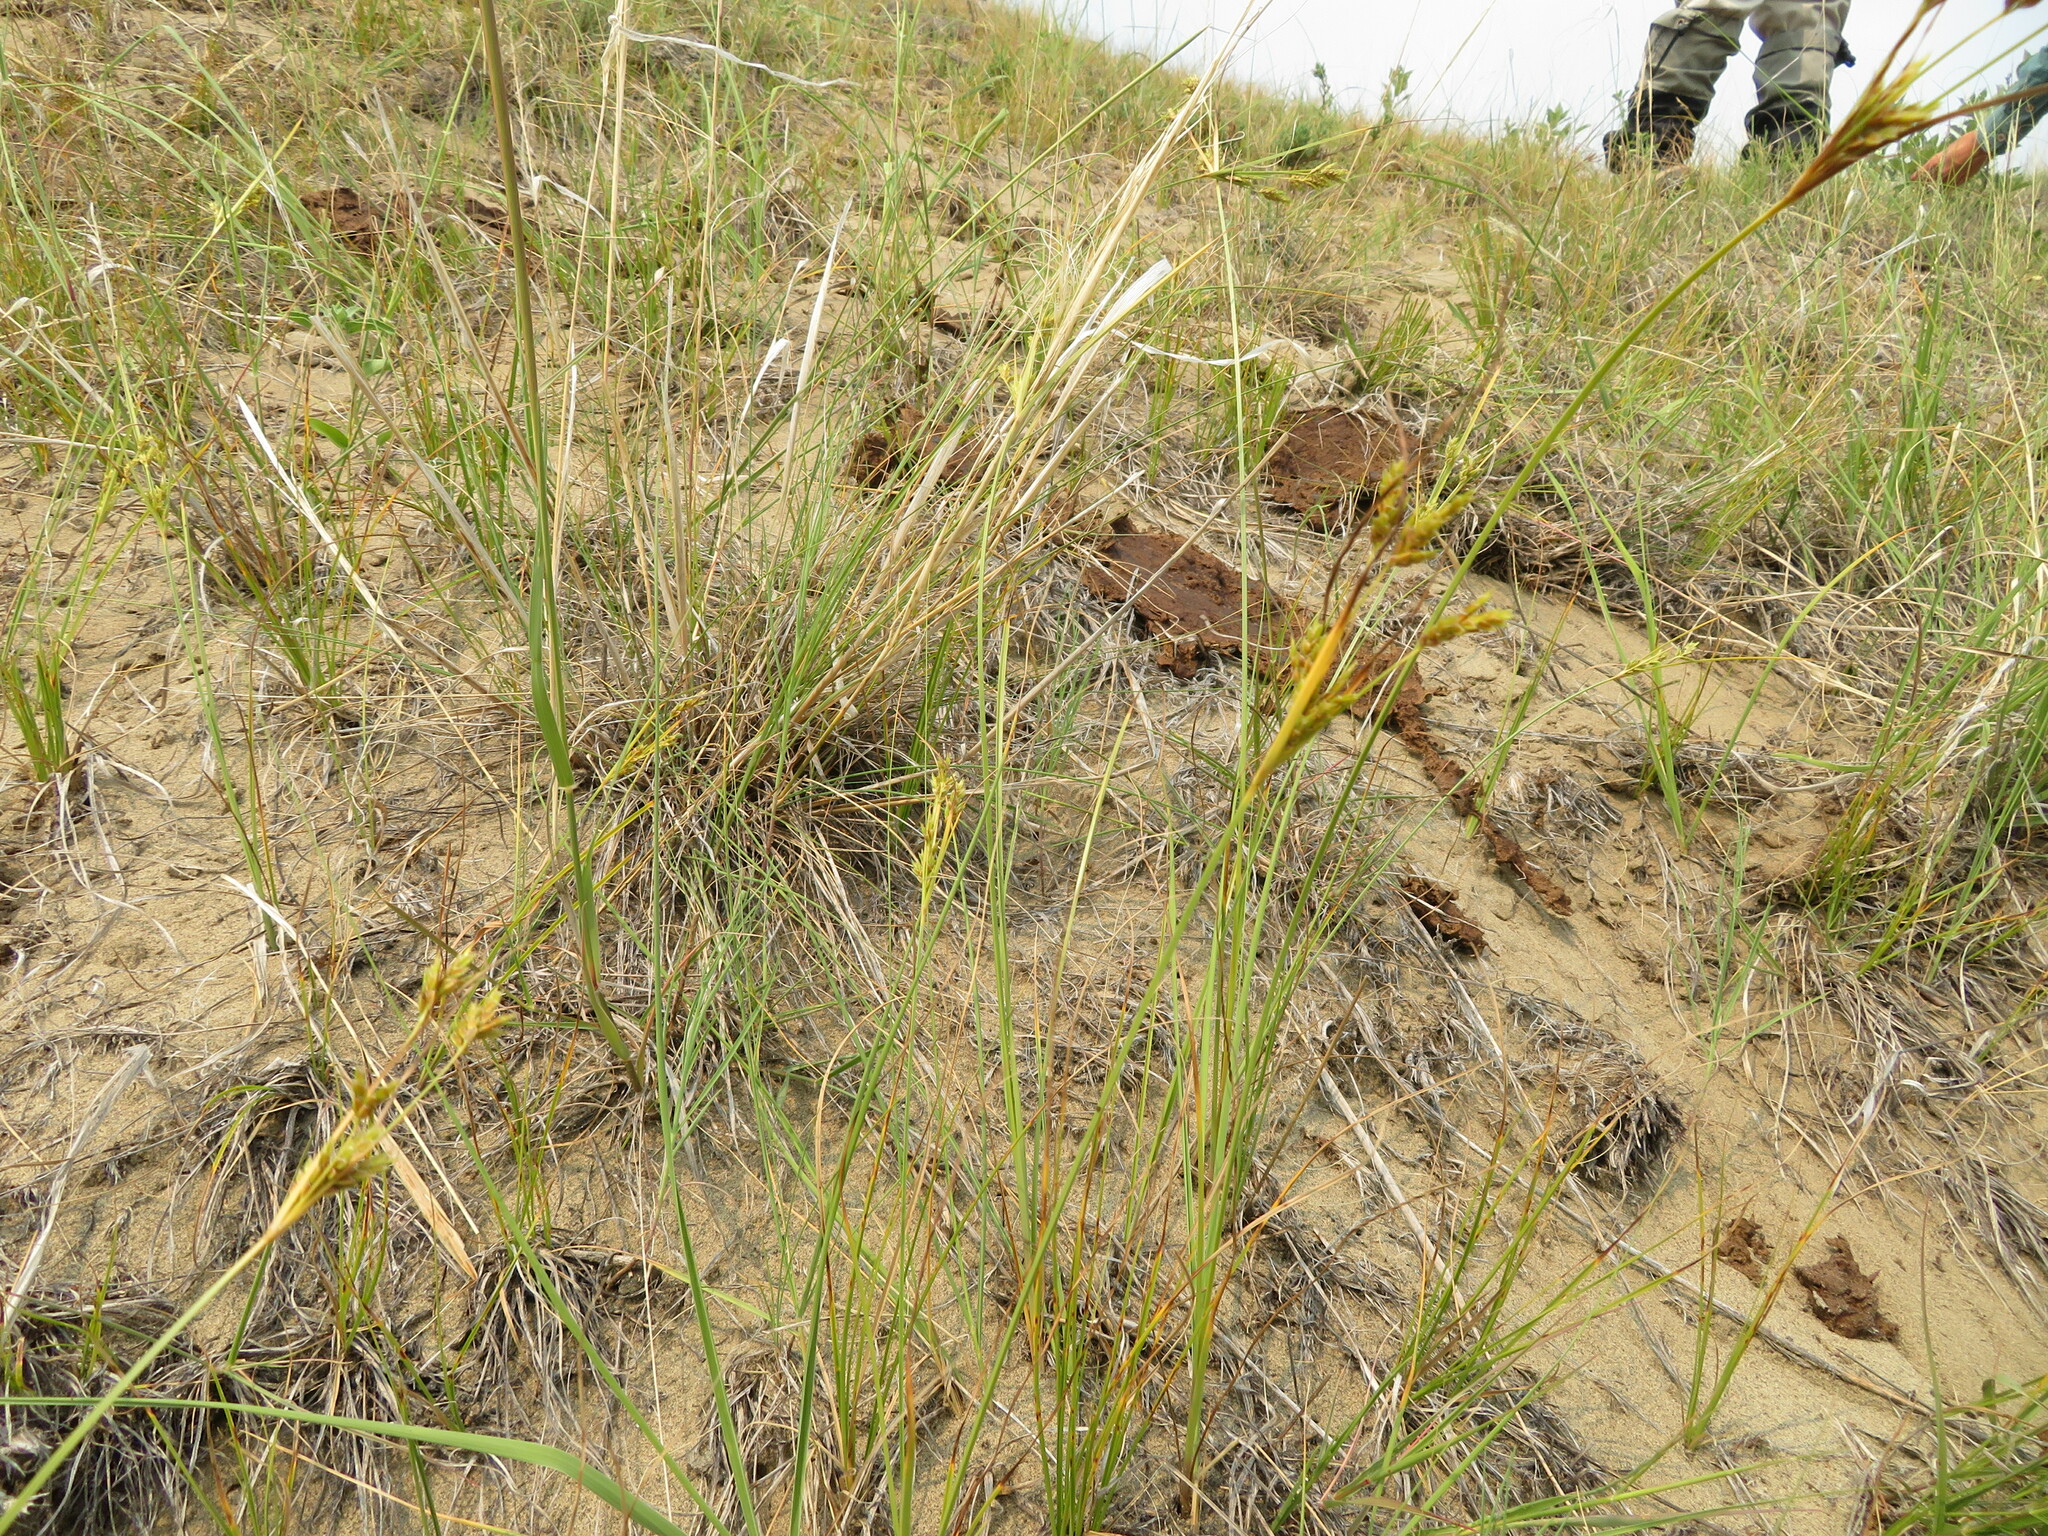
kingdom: Plantae
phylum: Tracheophyta
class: Liliopsida
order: Poales
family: Cyperaceae
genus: Cyperus
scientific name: Cyperus schweinitzii
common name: Schweinitz's cyperus
